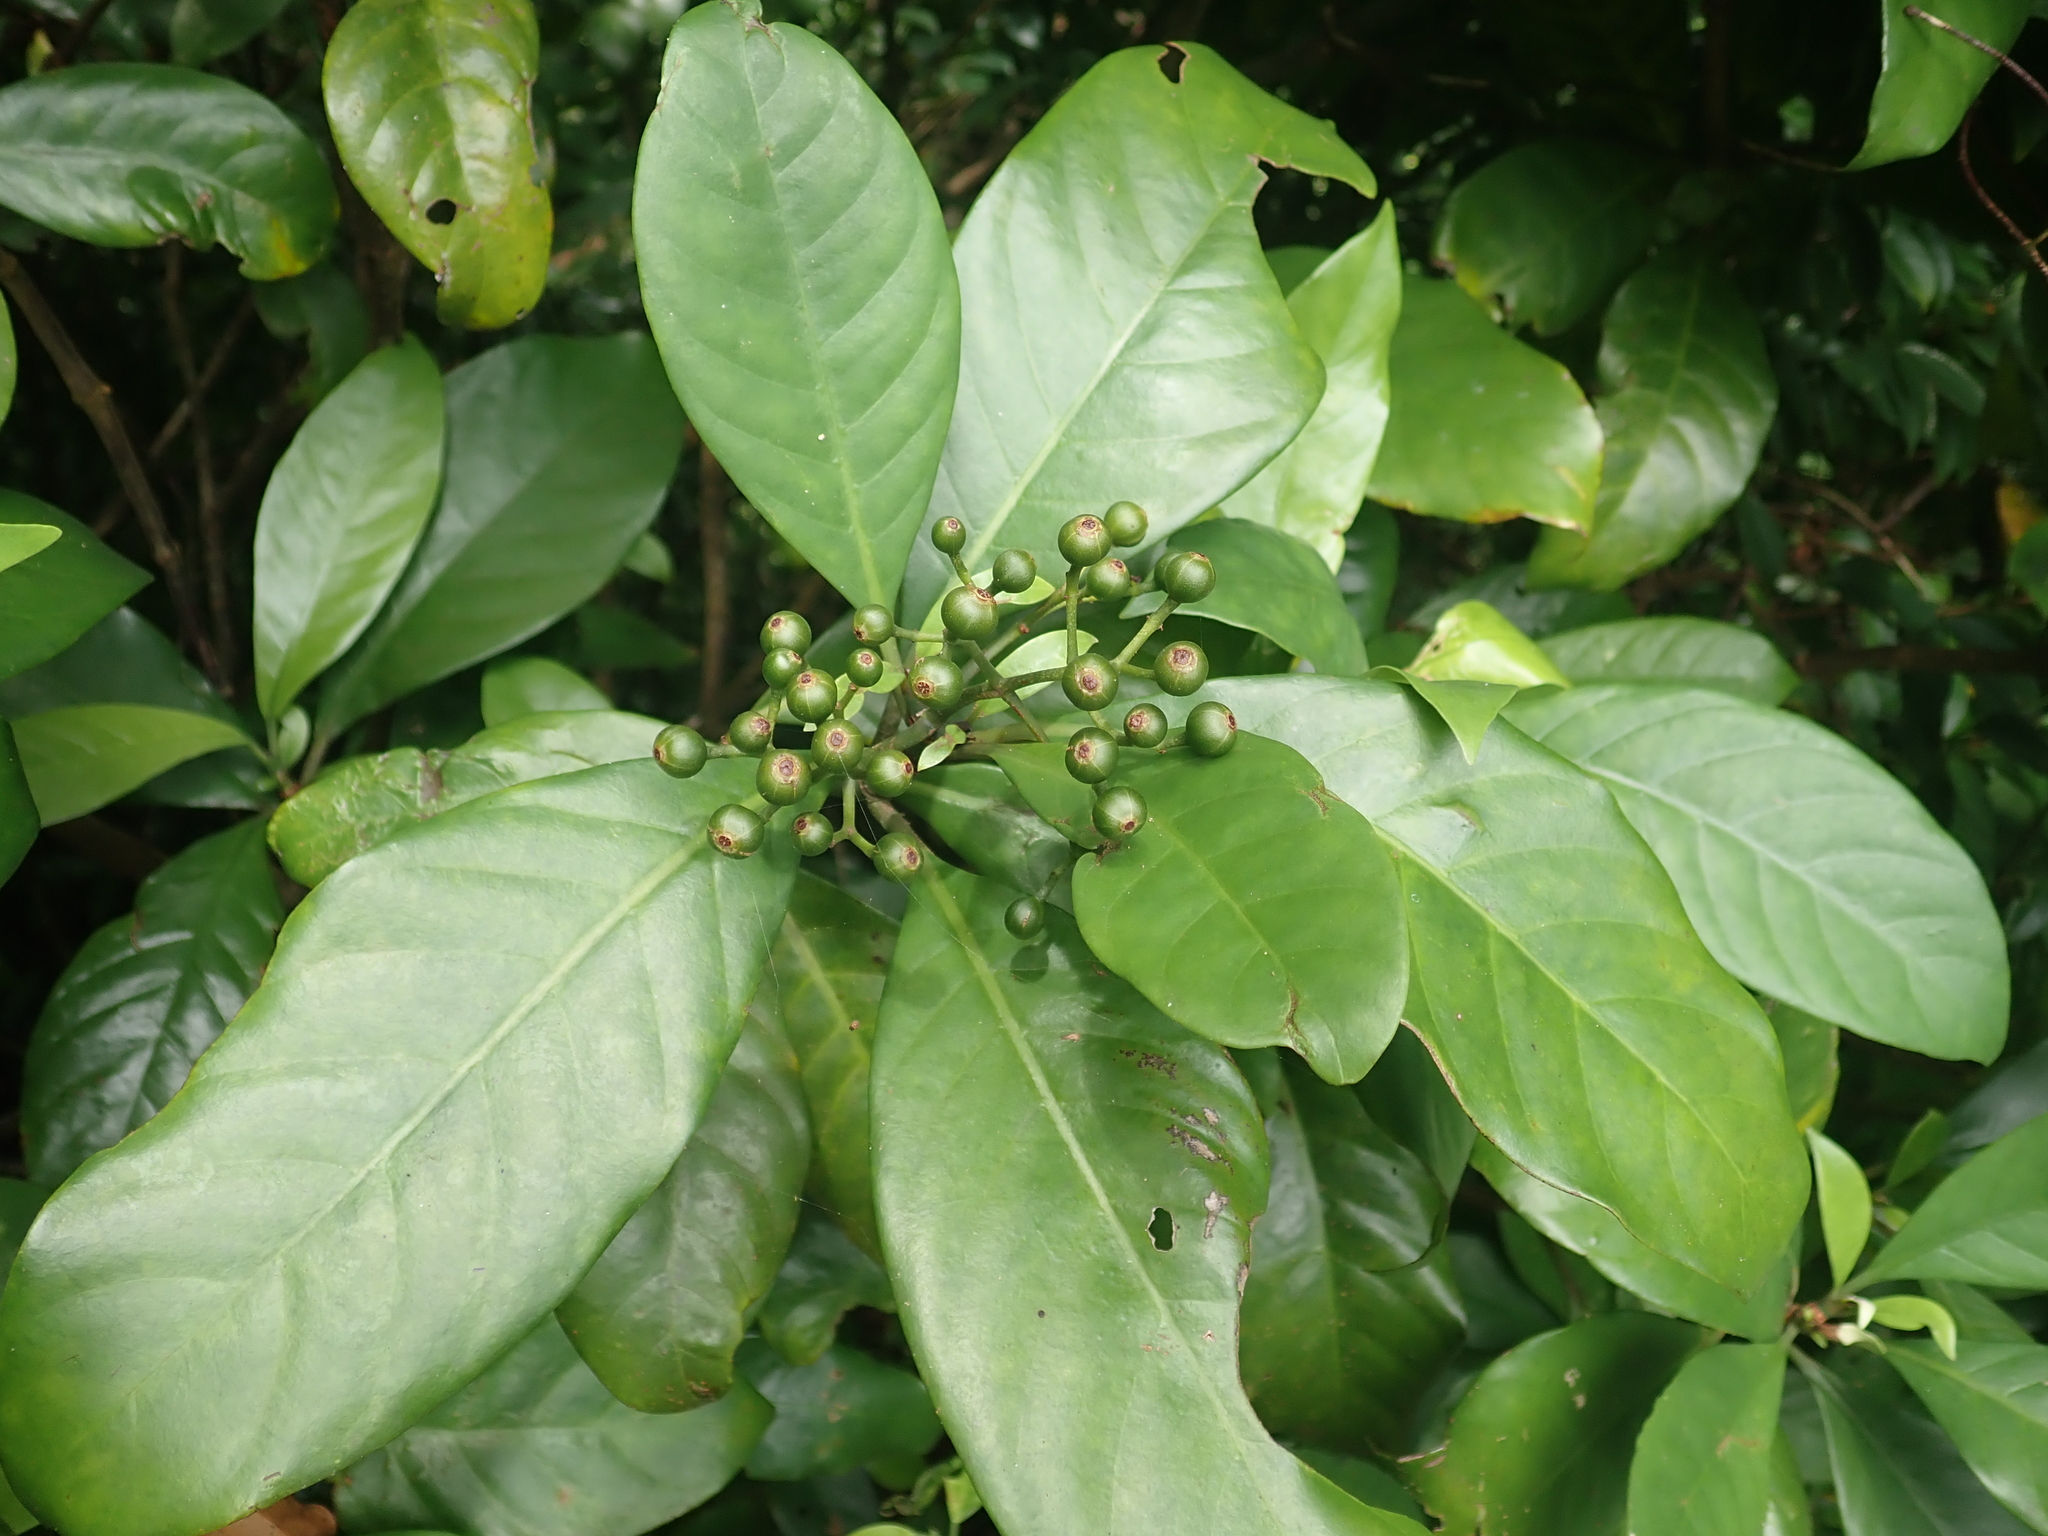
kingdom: Plantae
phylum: Tracheophyta
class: Magnoliopsida
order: Gentianales
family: Rubiaceae
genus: Psychotria
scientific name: Psychotria asiatica
